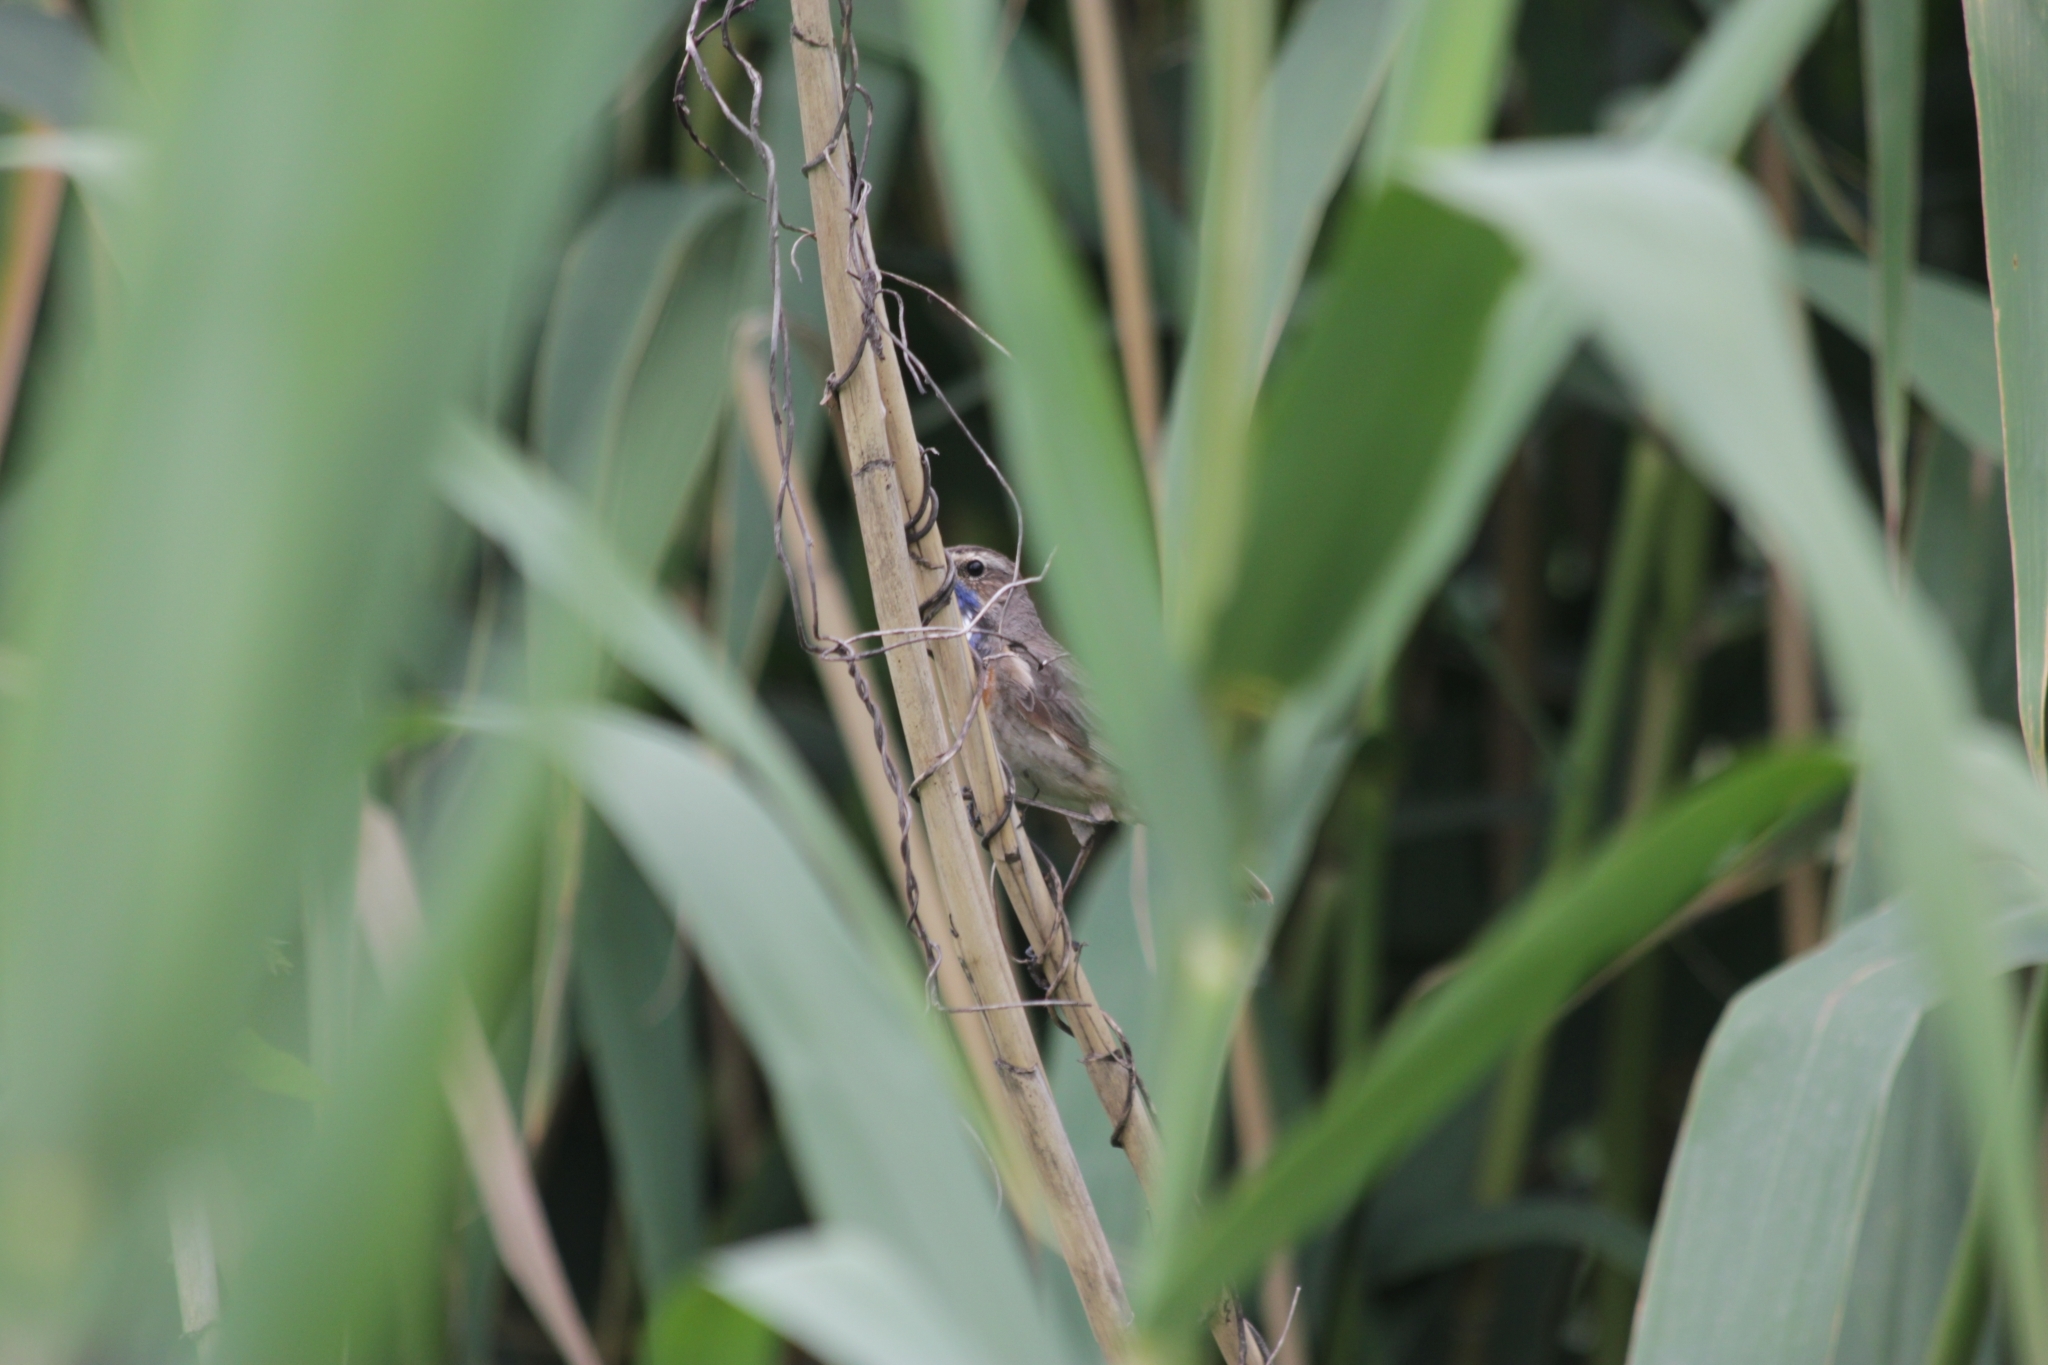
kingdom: Animalia
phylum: Chordata
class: Aves
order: Passeriformes
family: Muscicapidae
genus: Luscinia
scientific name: Luscinia svecica
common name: Bluethroat
